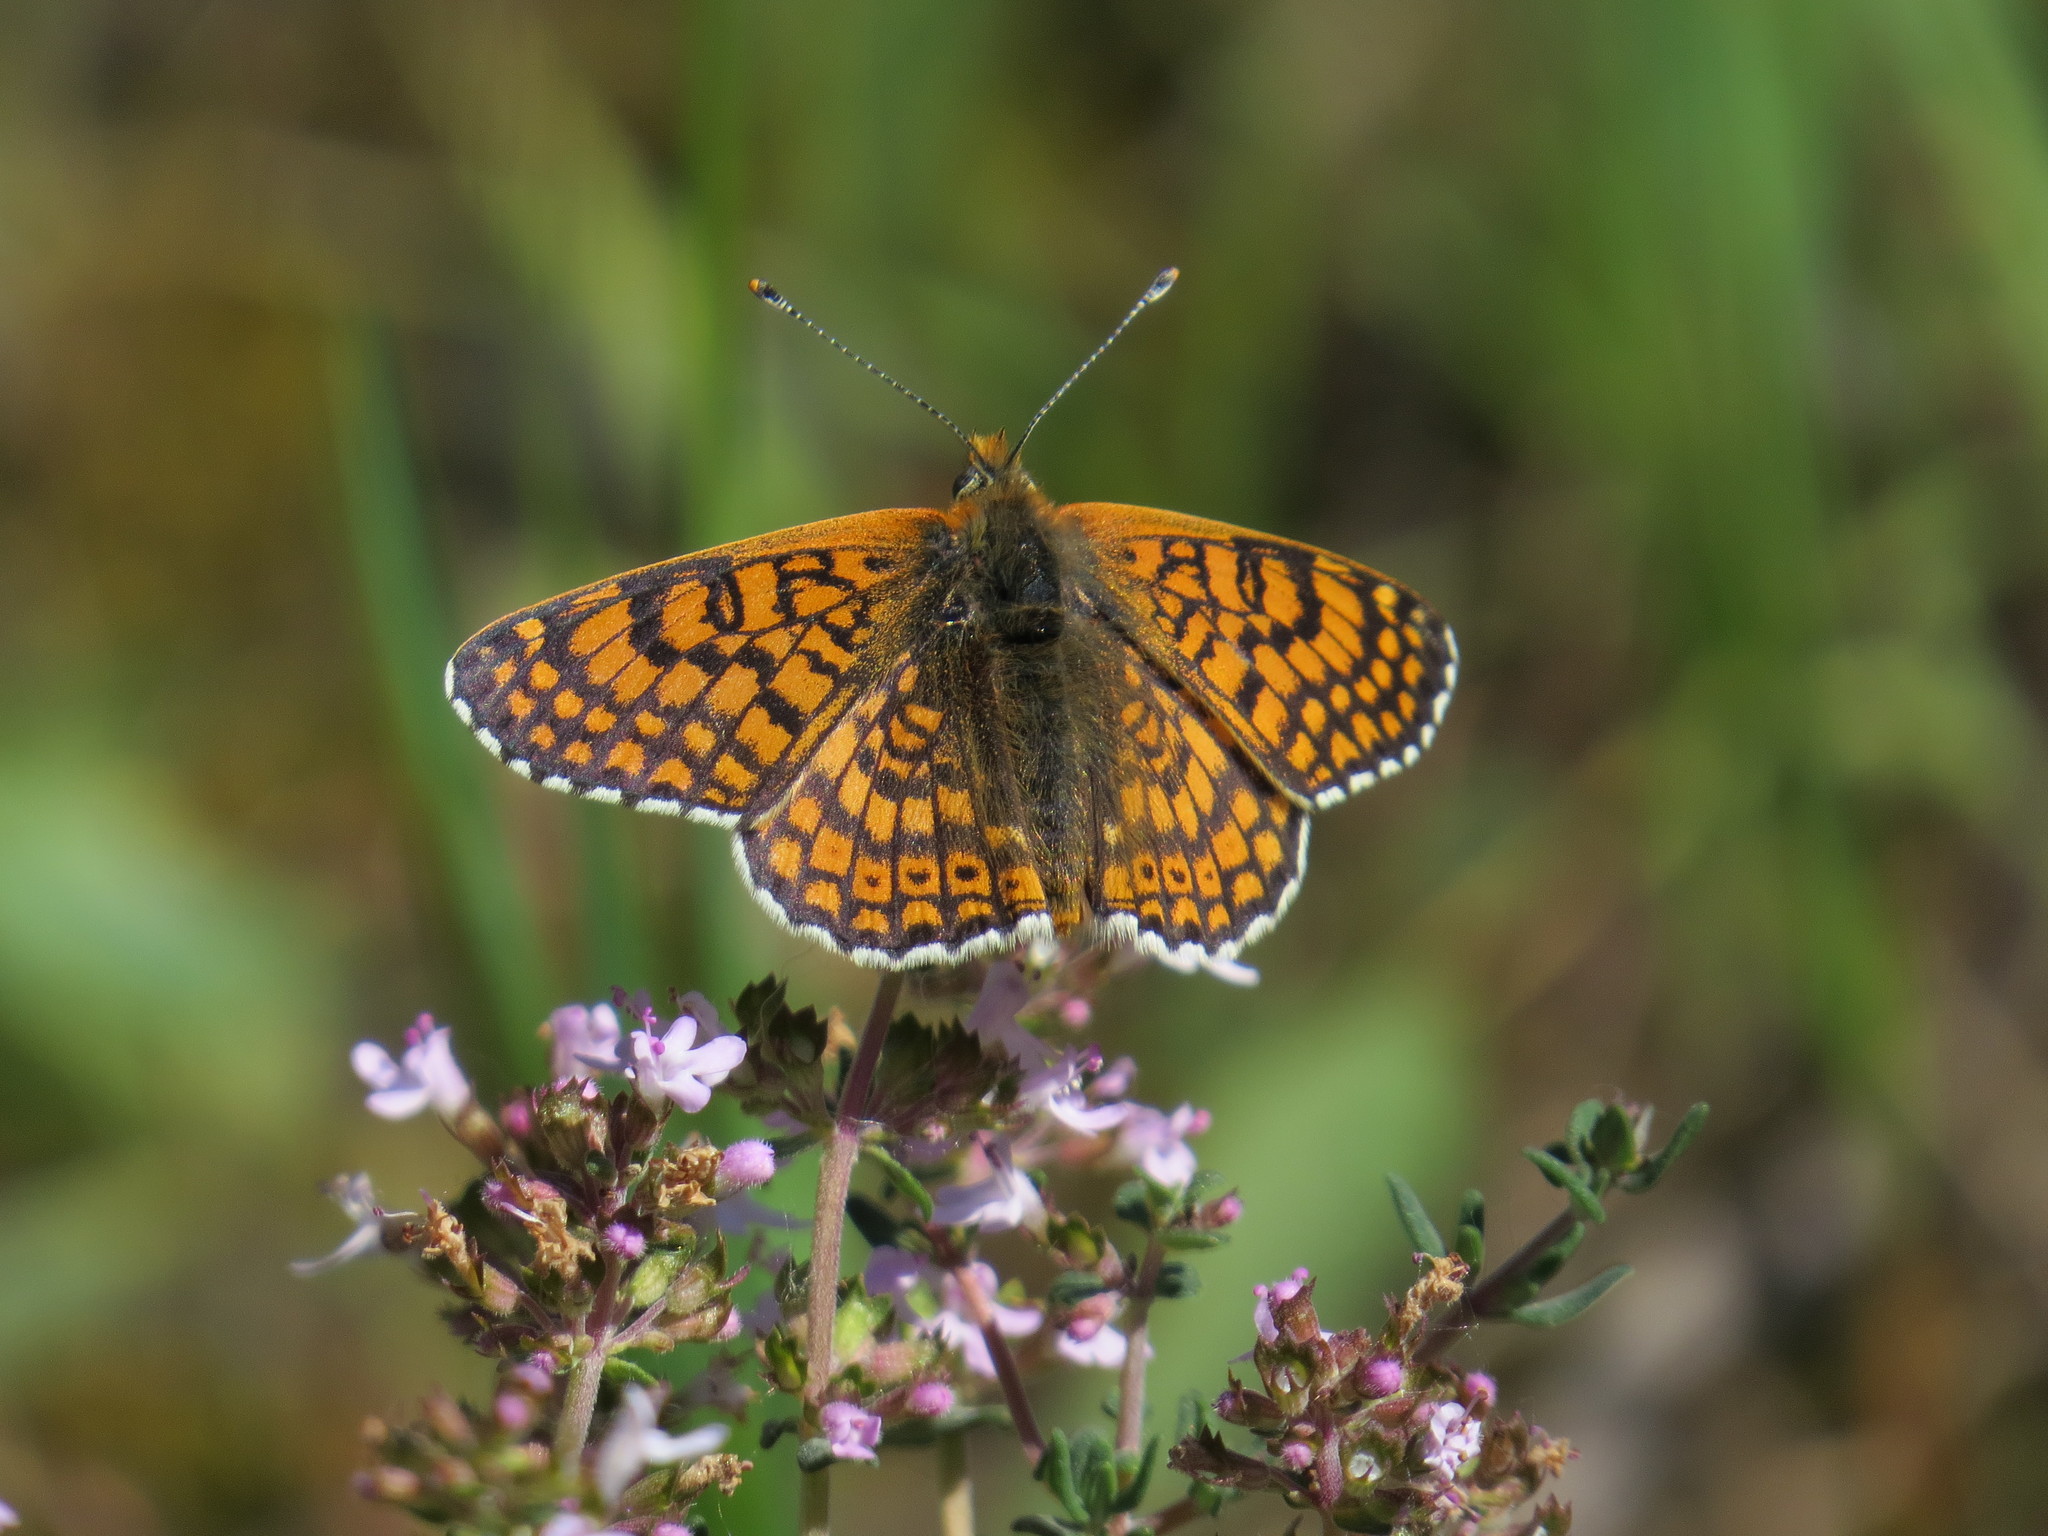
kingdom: Animalia
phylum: Arthropoda
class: Insecta
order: Lepidoptera
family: Nymphalidae
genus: Melitaea
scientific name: Melitaea cinxia
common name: Glanville fritillary
